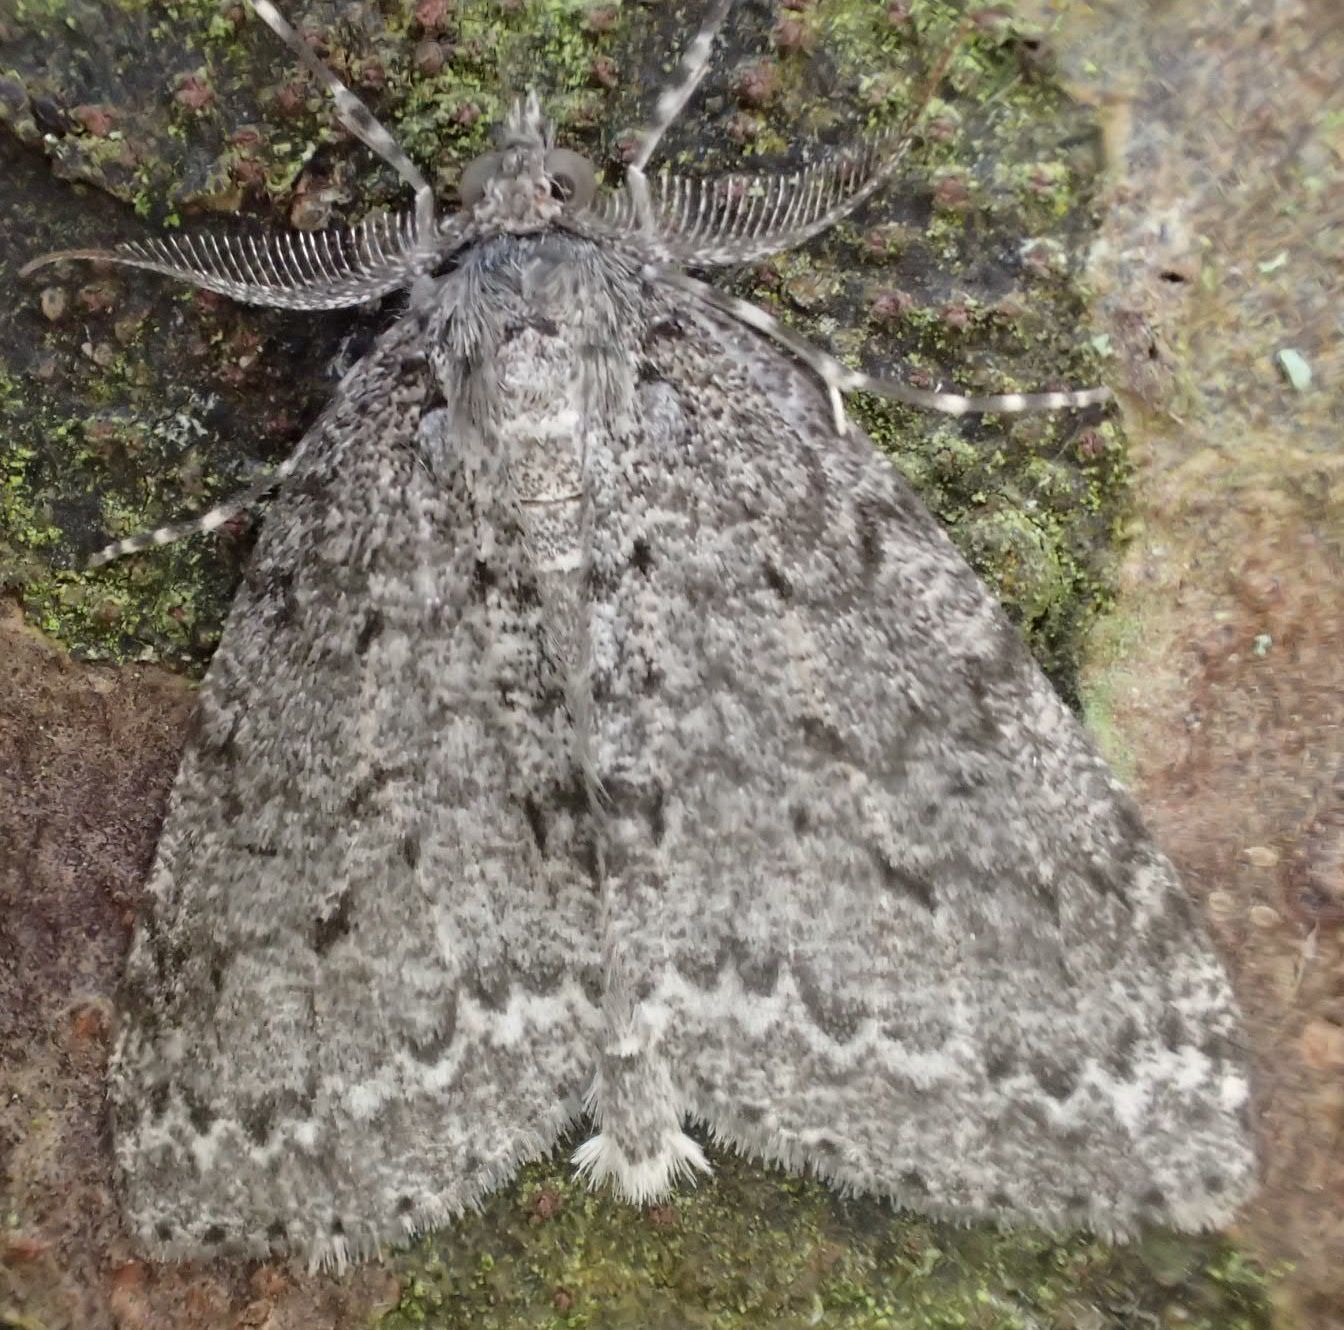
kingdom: Animalia
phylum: Arthropoda
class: Insecta
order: Lepidoptera
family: Geometridae
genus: Pseudocoremia
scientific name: Pseudocoremia fenerata
